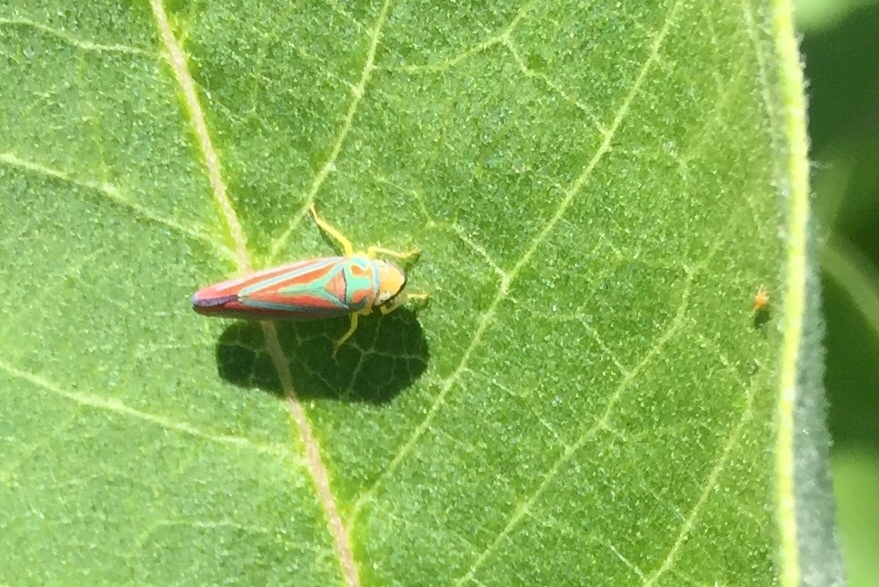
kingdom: Animalia
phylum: Arthropoda
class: Insecta
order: Hemiptera
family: Cicadellidae
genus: Graphocephala
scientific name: Graphocephala coccinea
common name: Candy-striped leafhopper
